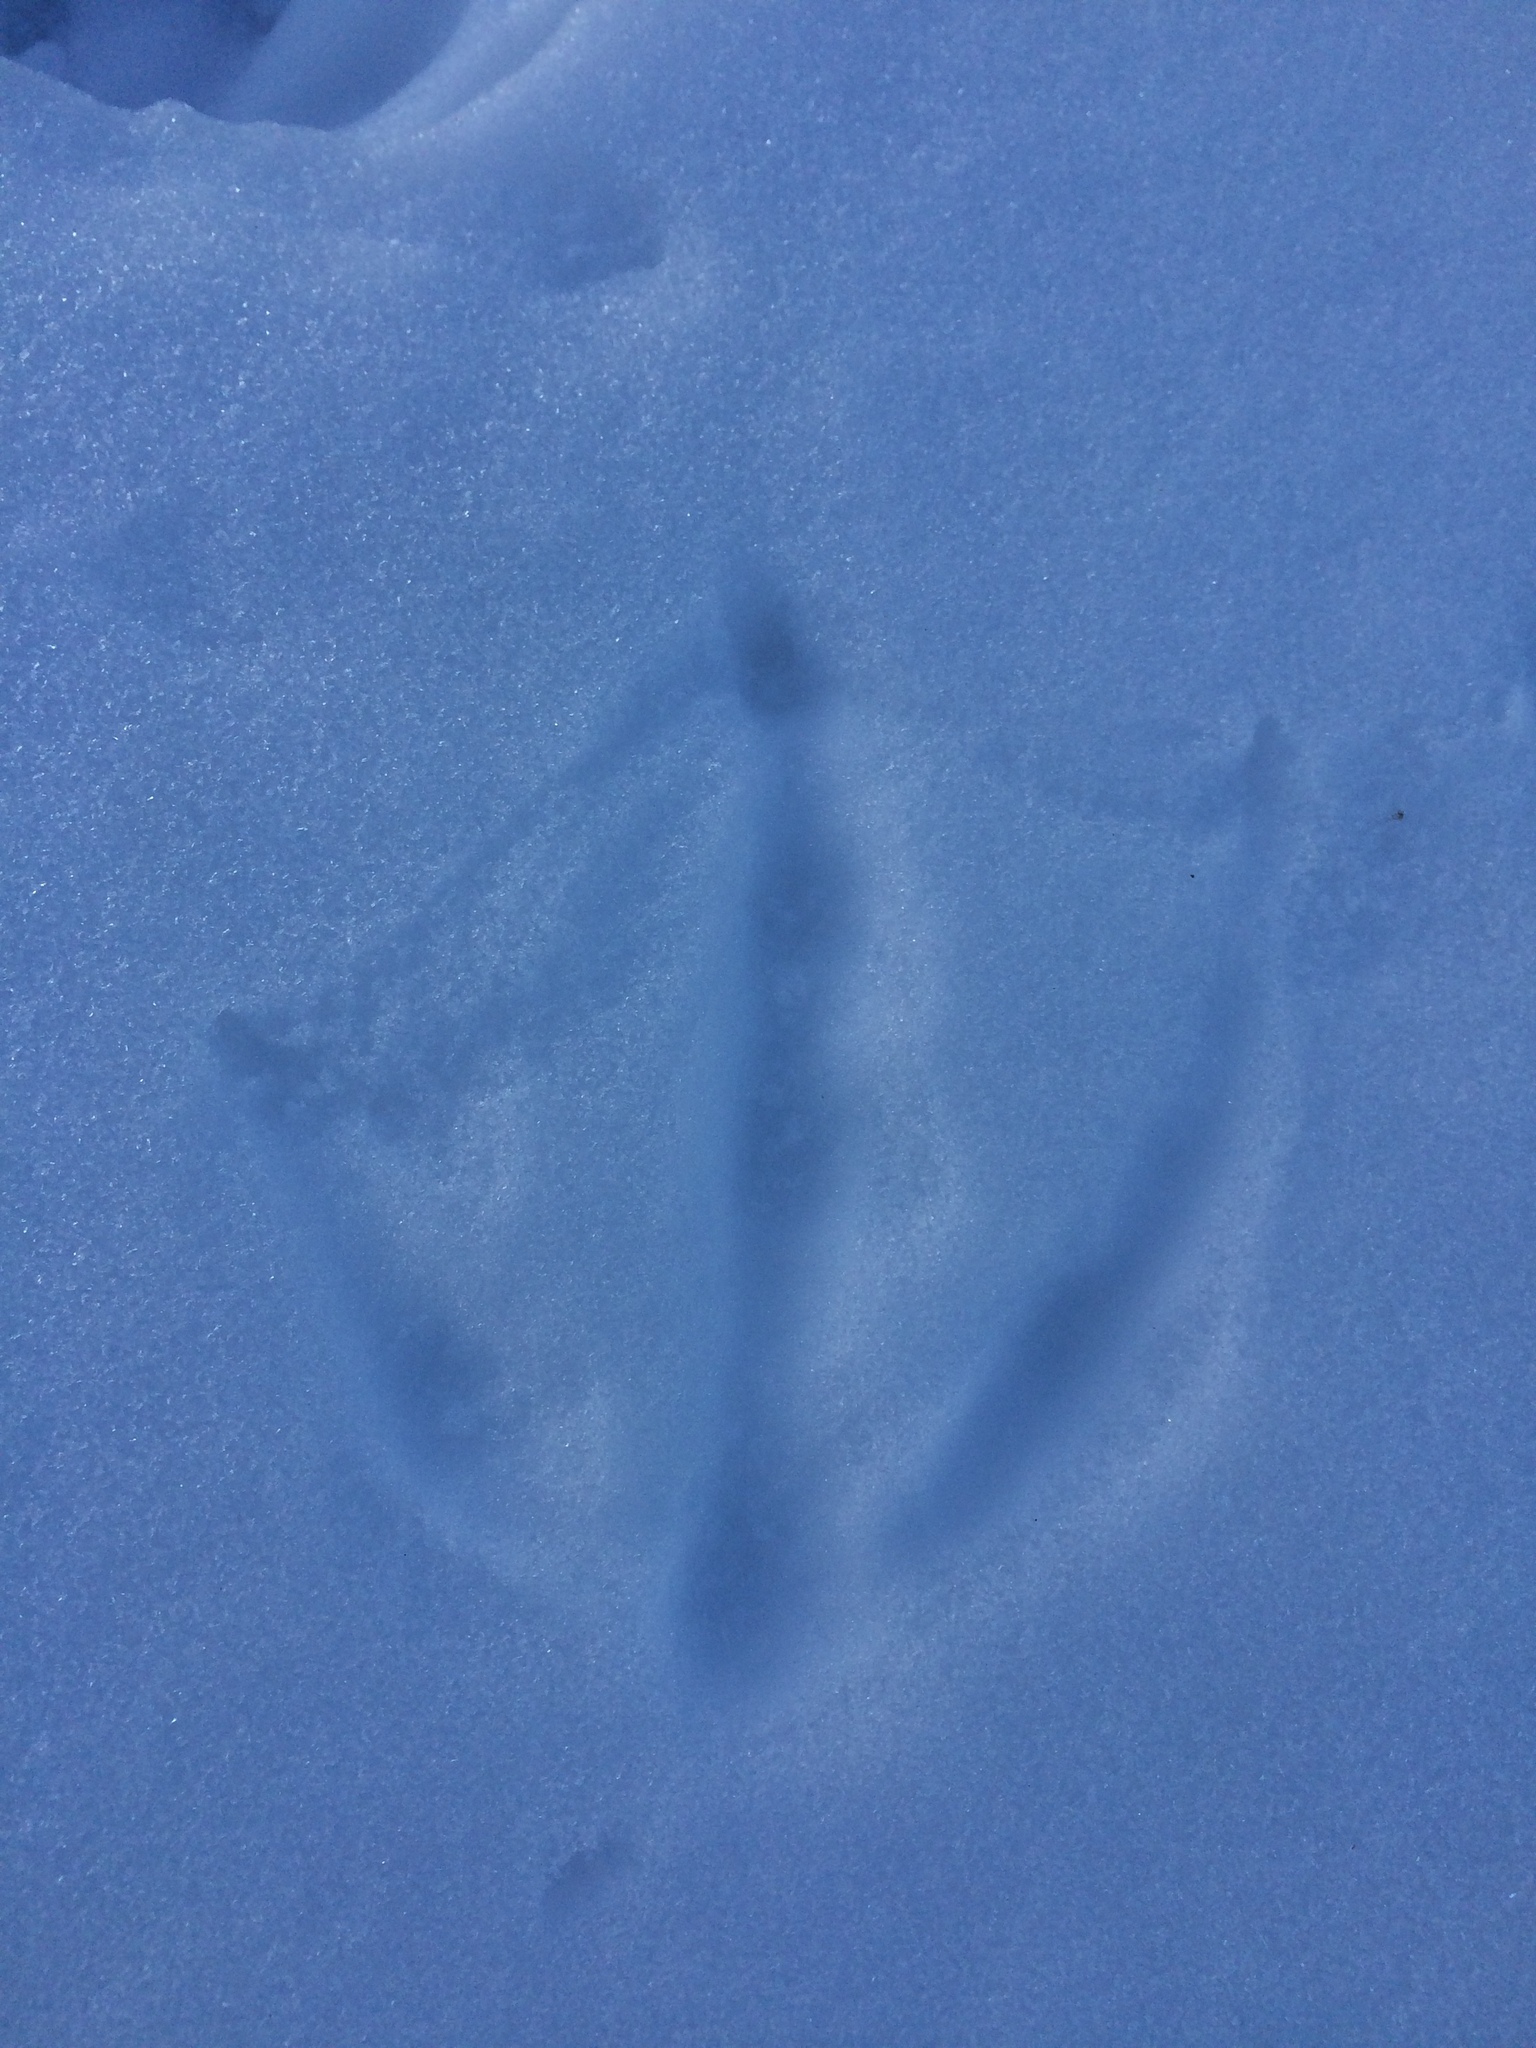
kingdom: Animalia
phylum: Chordata
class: Aves
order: Anseriformes
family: Anatidae
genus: Branta
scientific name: Branta canadensis
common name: Canada goose
